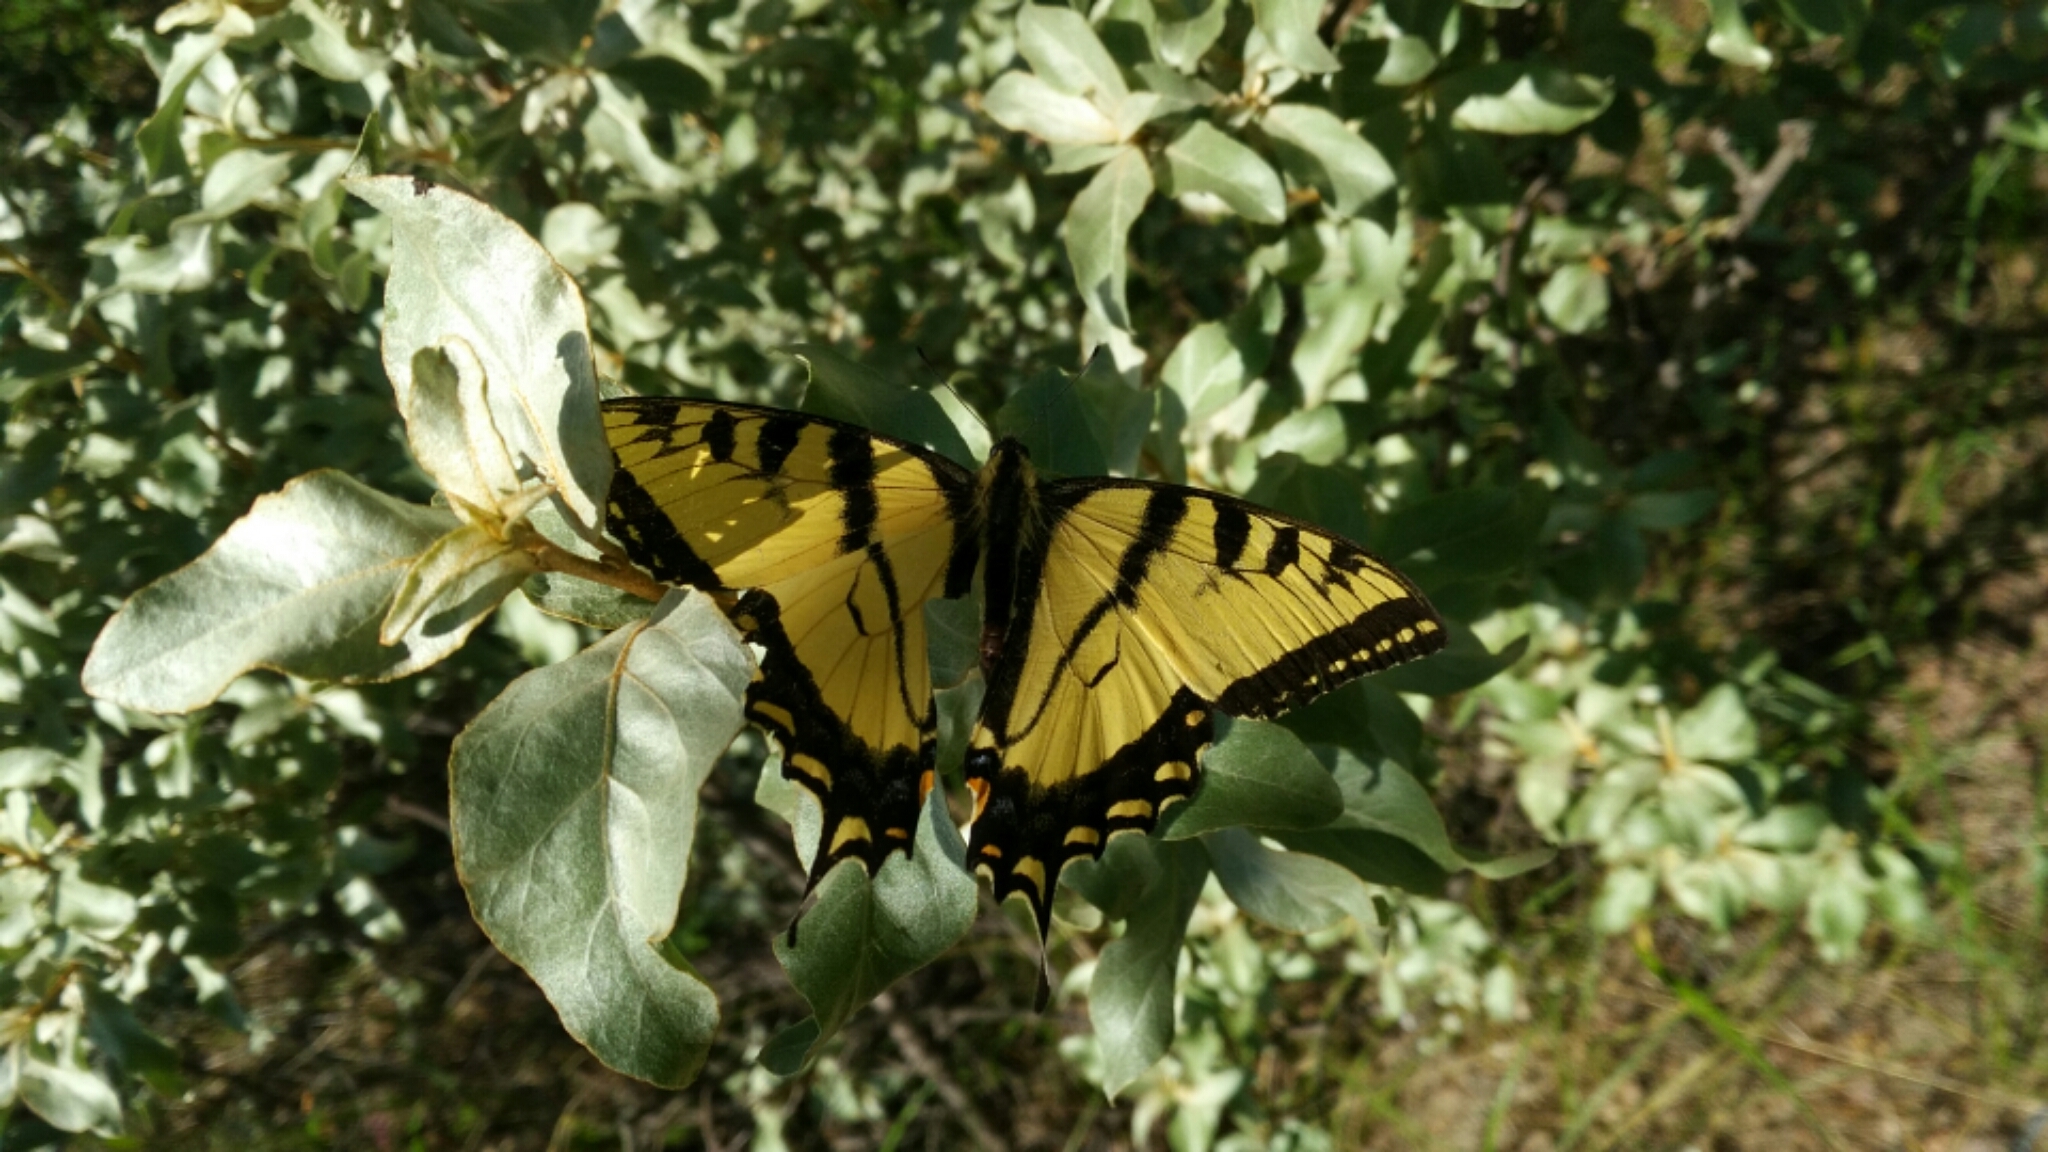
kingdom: Animalia
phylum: Arthropoda
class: Insecta
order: Lepidoptera
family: Papilionidae
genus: Papilio
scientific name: Papilio canadensis
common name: Canadian tiger swallowtail
